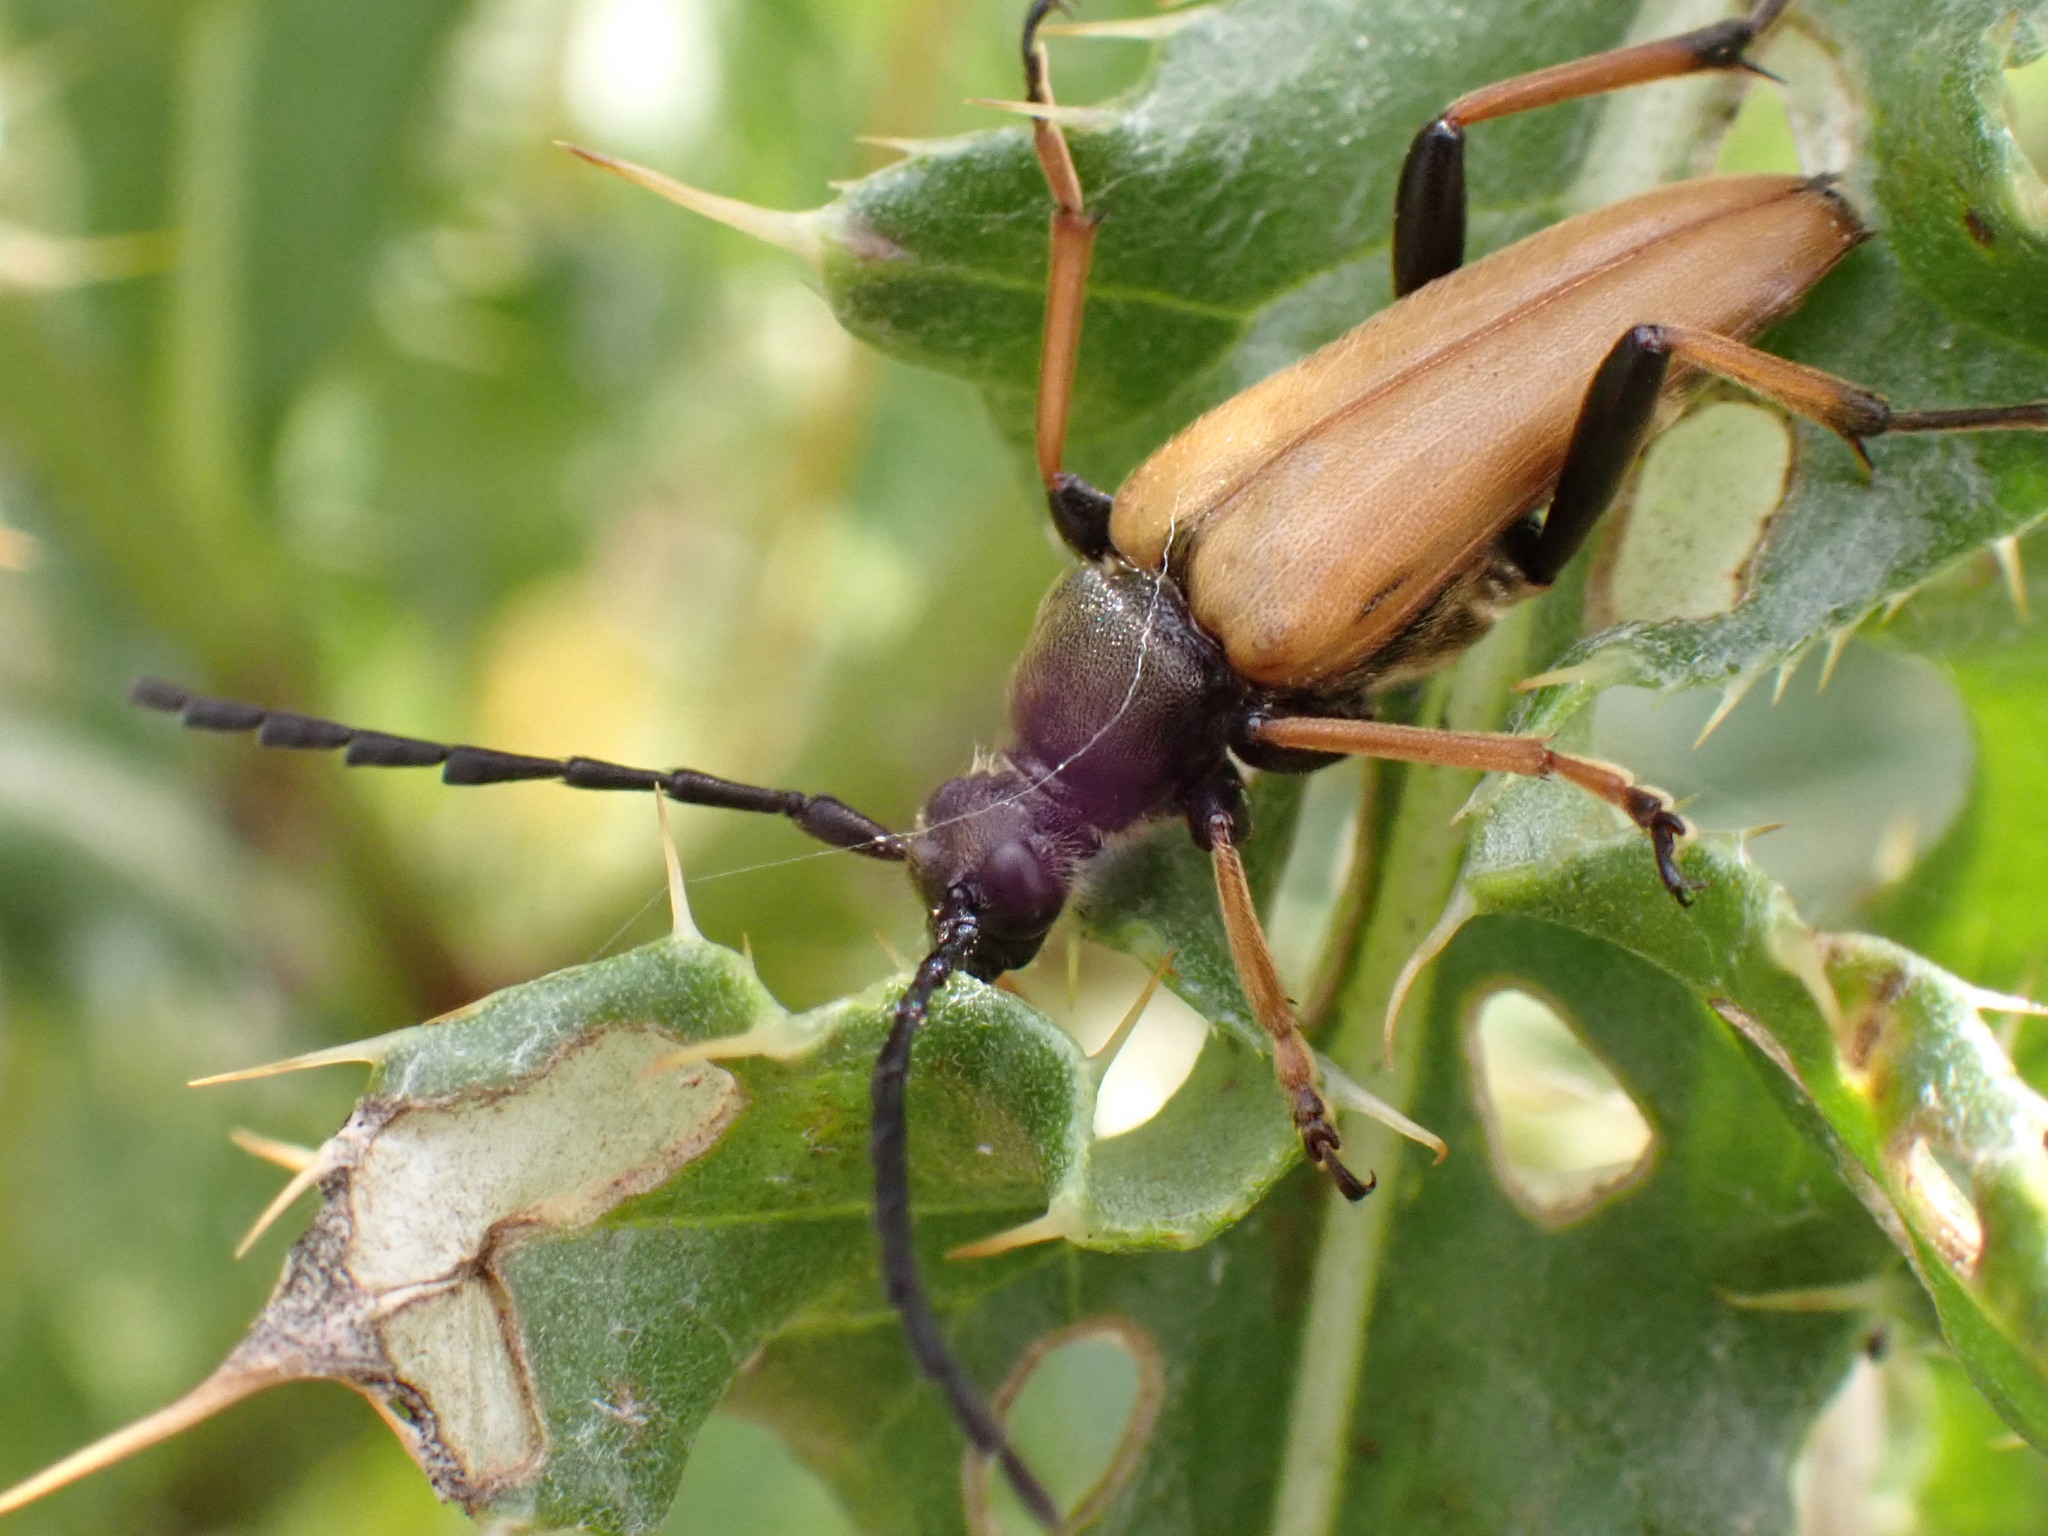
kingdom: Animalia
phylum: Arthropoda
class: Insecta
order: Coleoptera
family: Cerambycidae
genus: Stictoleptura
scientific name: Stictoleptura rubra
